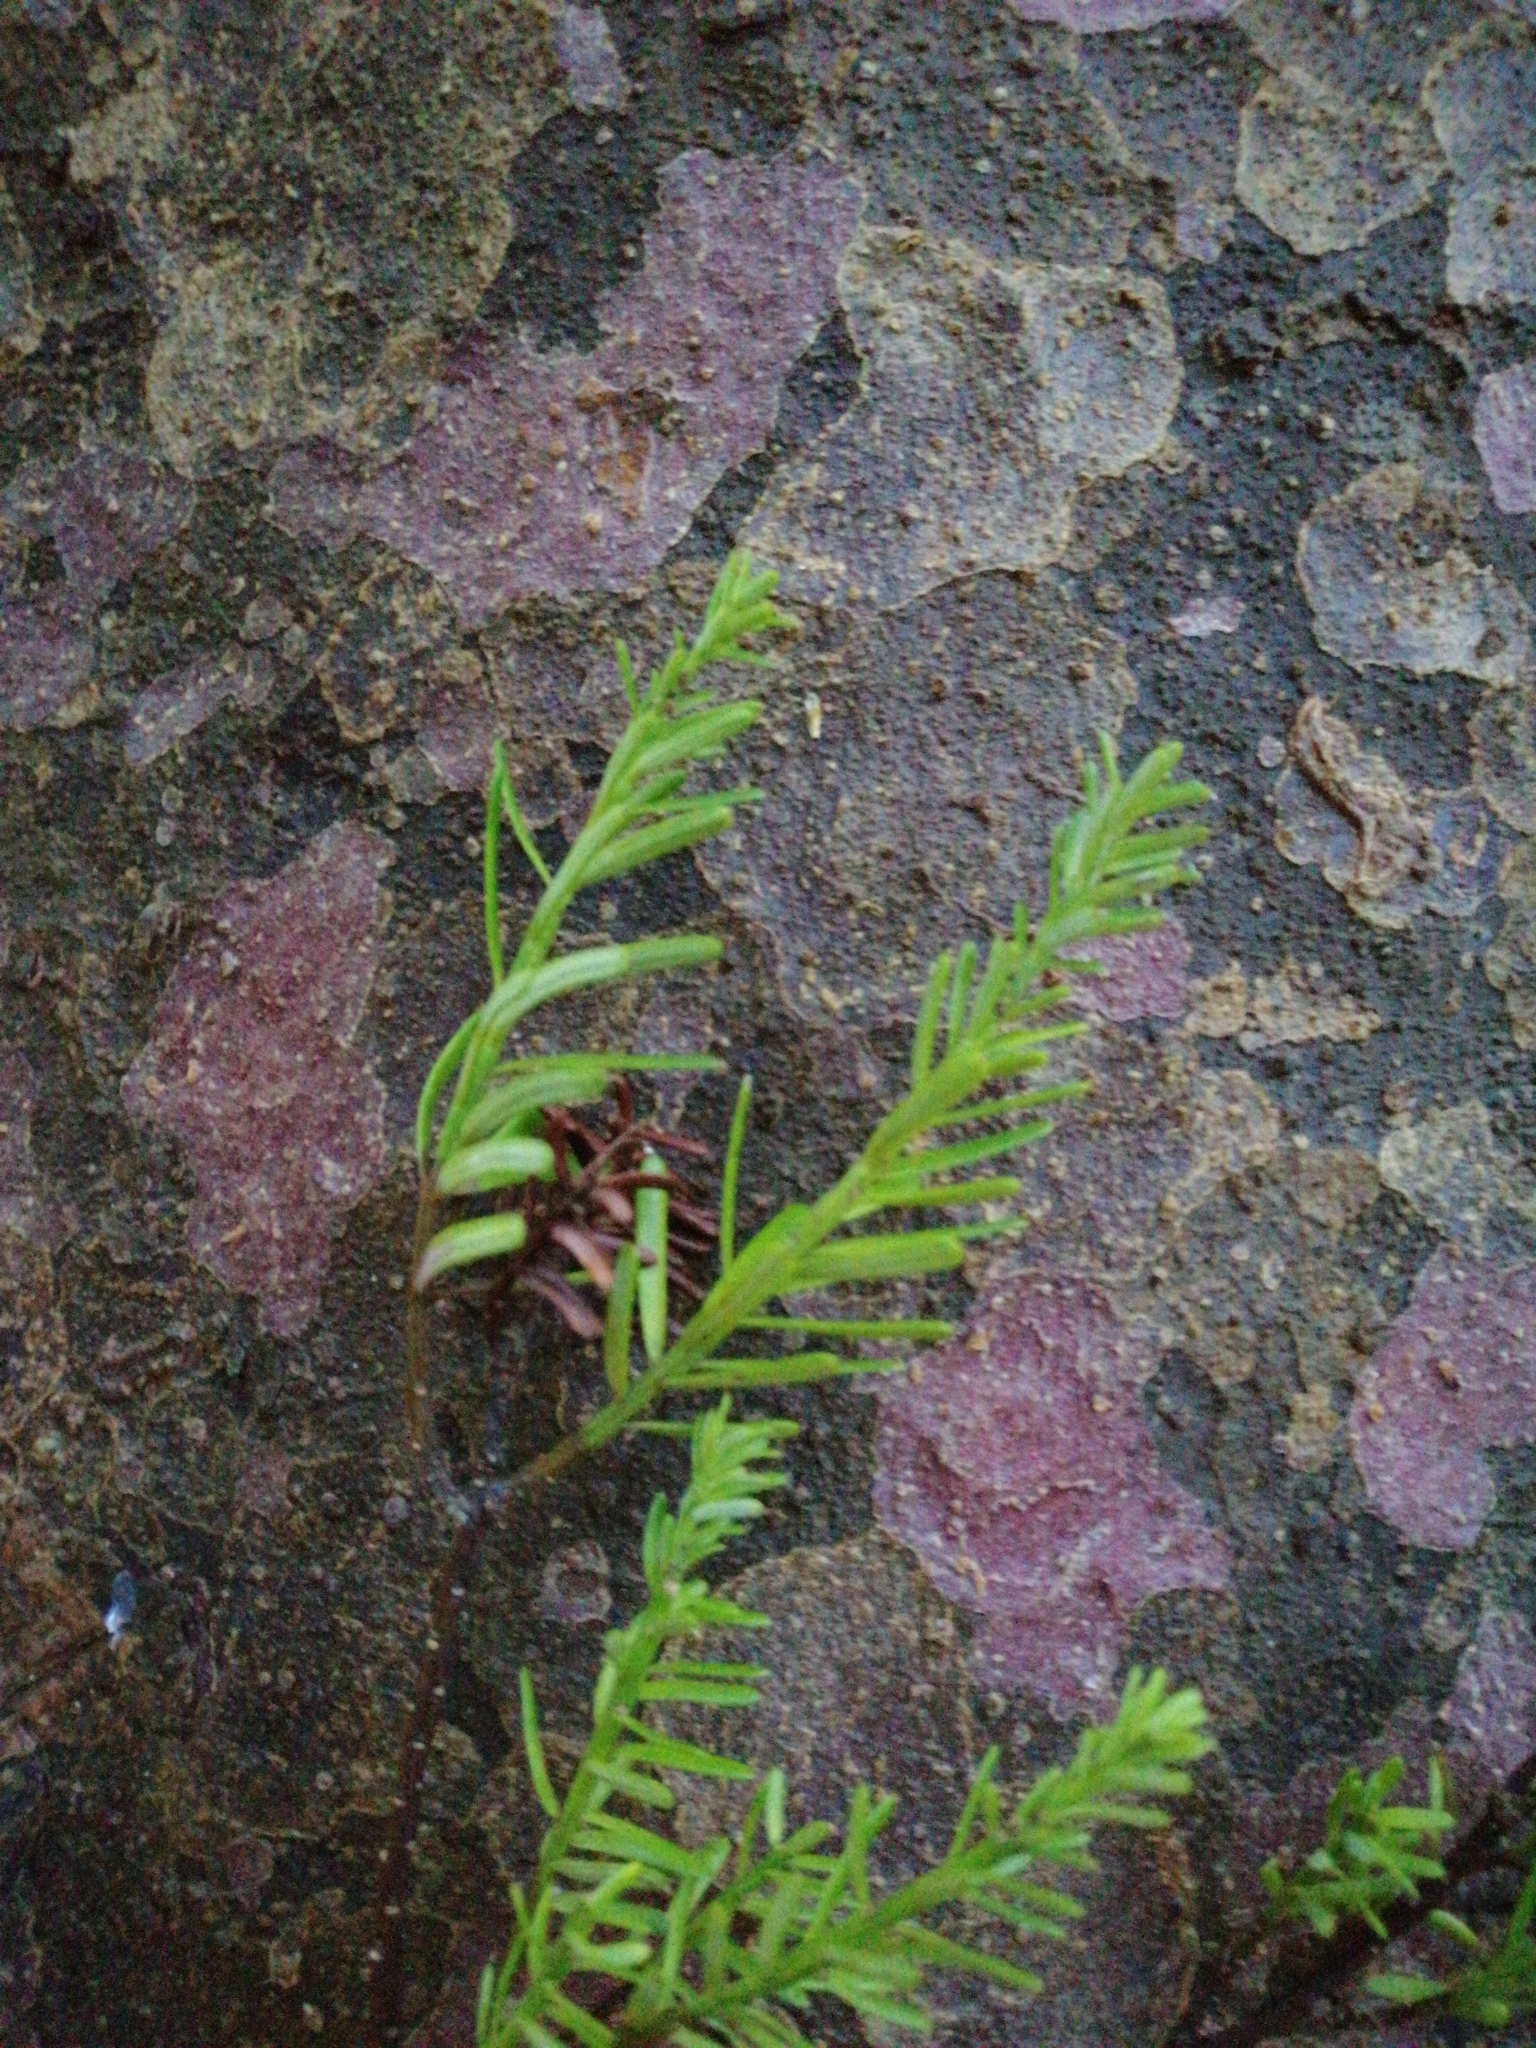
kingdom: Plantae
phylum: Tracheophyta
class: Pinopsida
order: Pinales
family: Podocarpaceae
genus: Prumnopitys
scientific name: Prumnopitys taxifolia
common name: Matai
